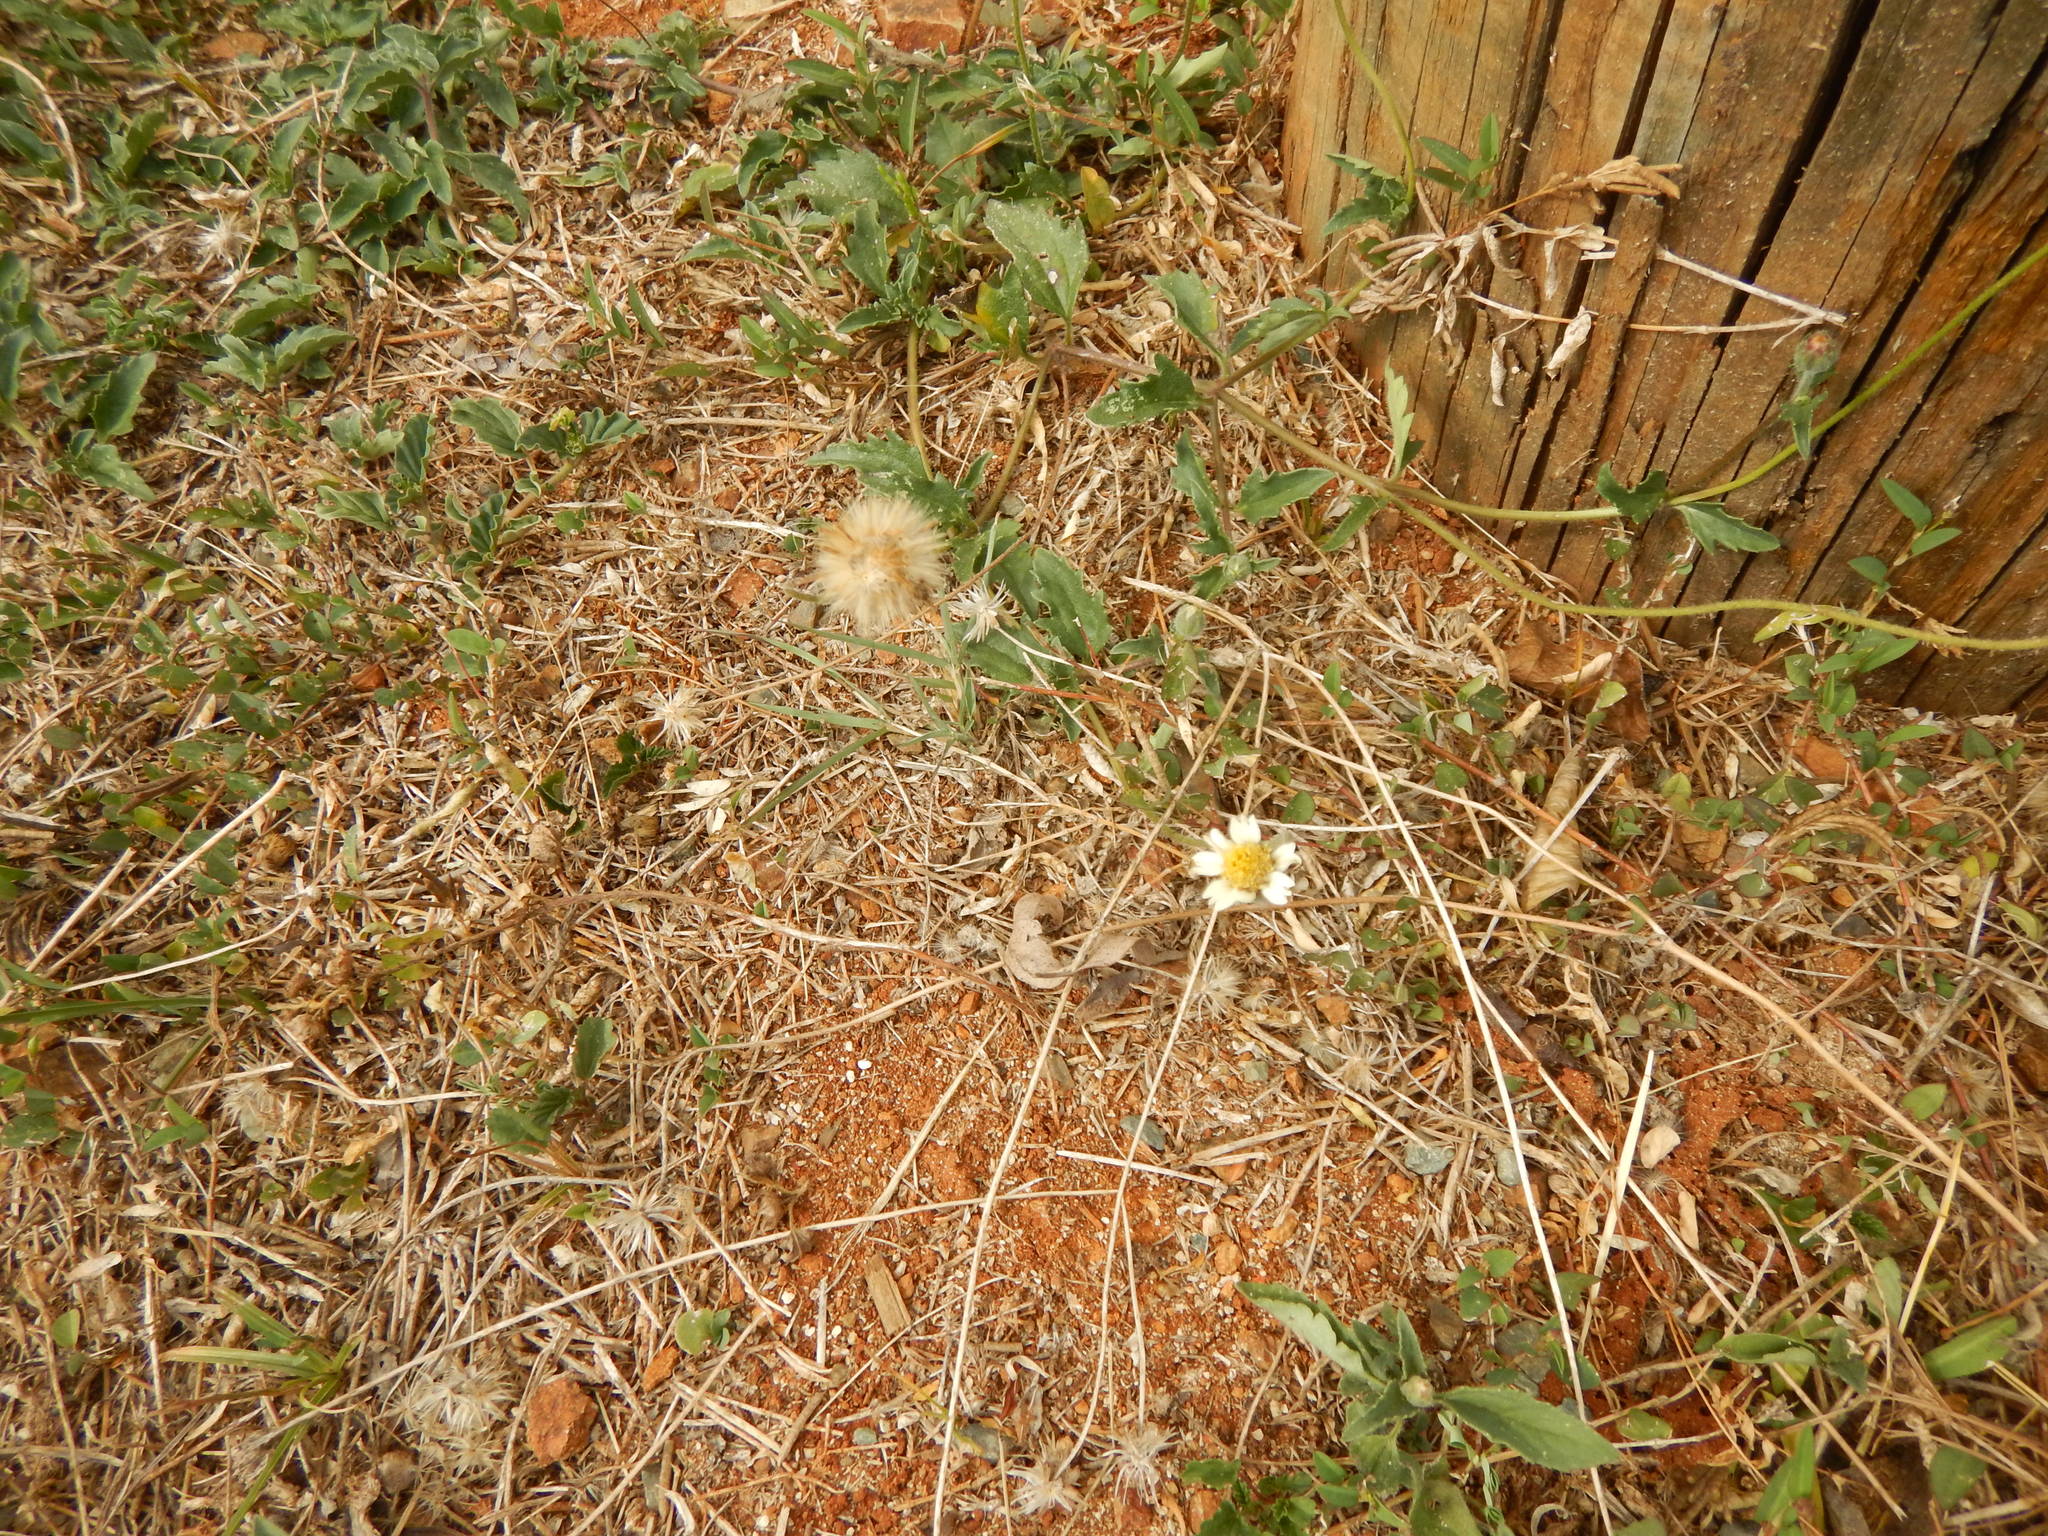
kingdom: Plantae
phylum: Tracheophyta
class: Magnoliopsida
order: Asterales
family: Asteraceae
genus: Tridax
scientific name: Tridax procumbens
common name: Coatbuttons
